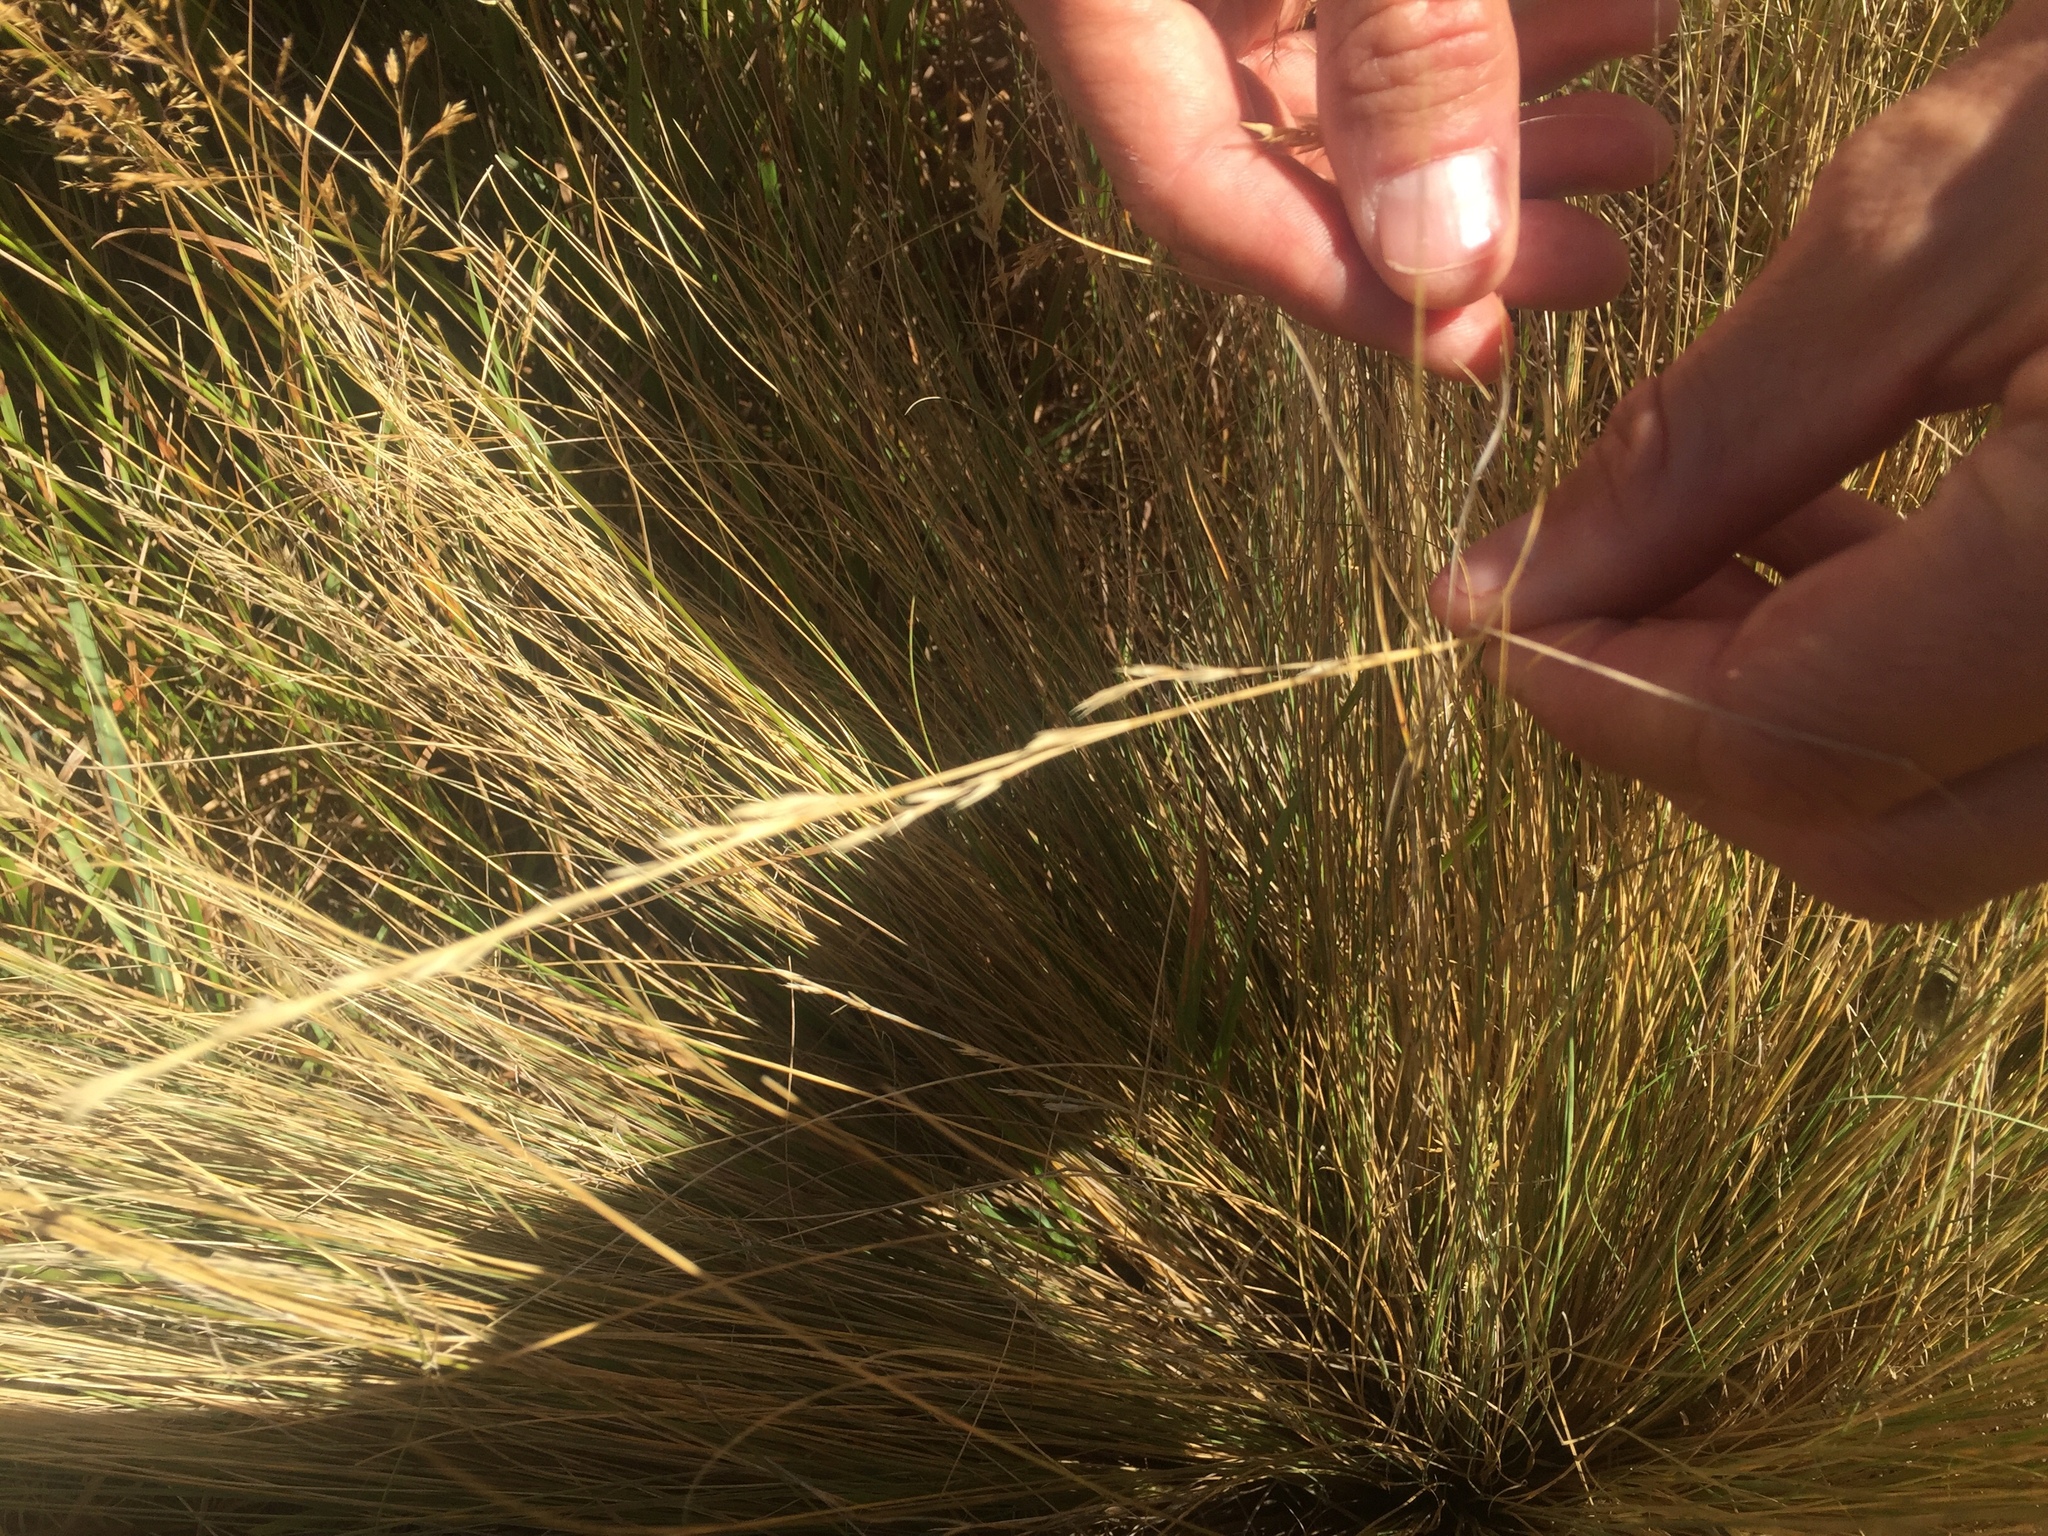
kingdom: Plantae
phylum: Tracheophyta
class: Liliopsida
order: Poales
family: Poaceae
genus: Poa
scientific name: Poa cita
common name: Silver tussock
